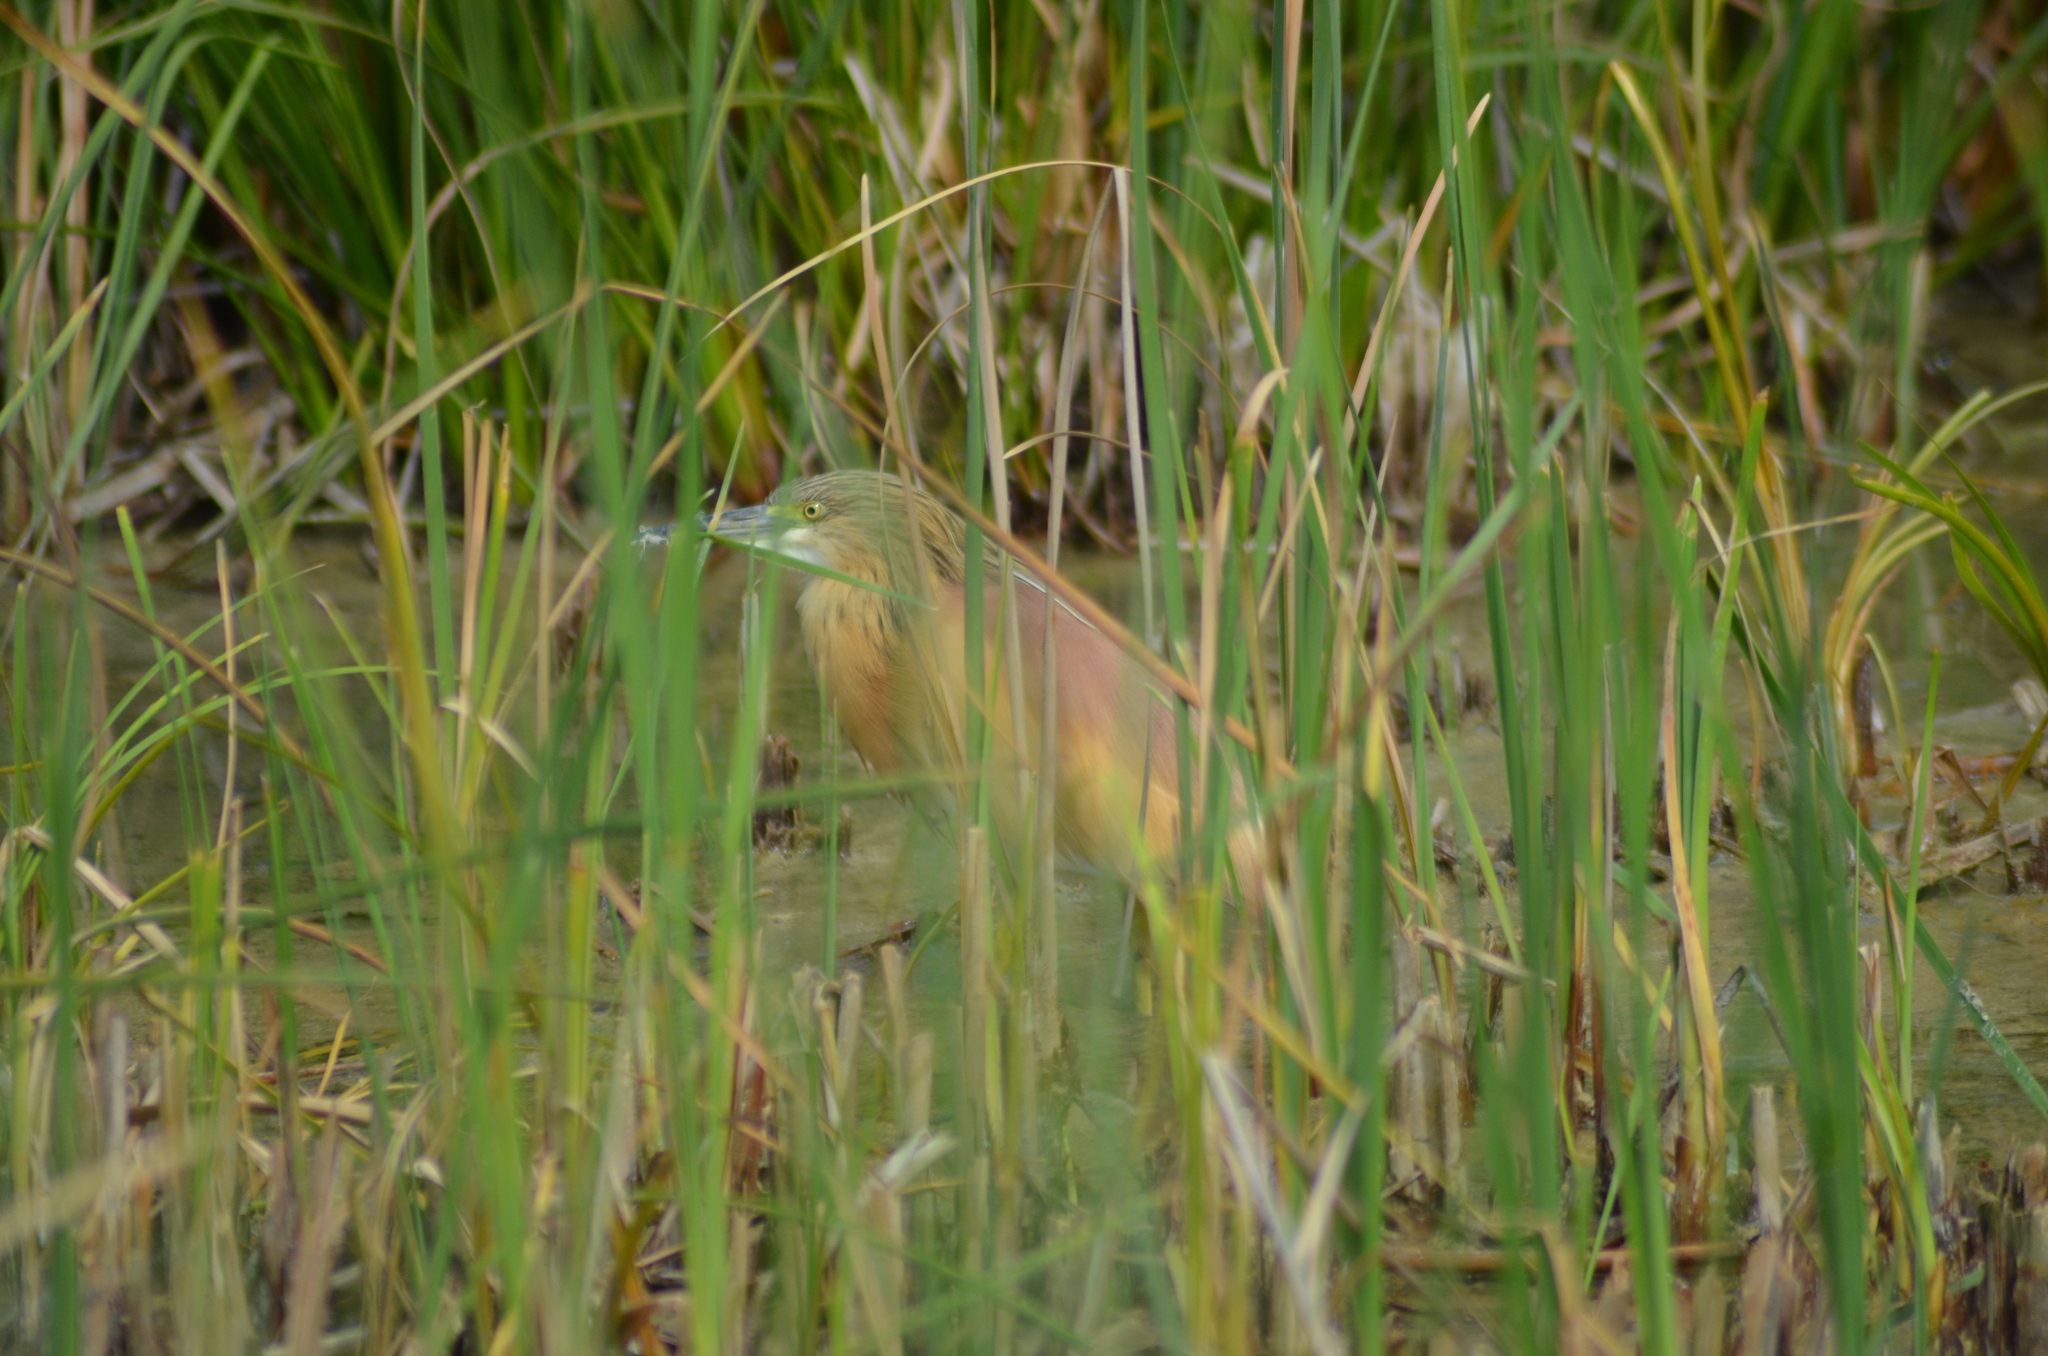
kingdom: Animalia
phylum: Chordata
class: Aves
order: Pelecaniformes
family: Ardeidae
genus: Ardeola
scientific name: Ardeola ralloides
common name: Squacco heron
